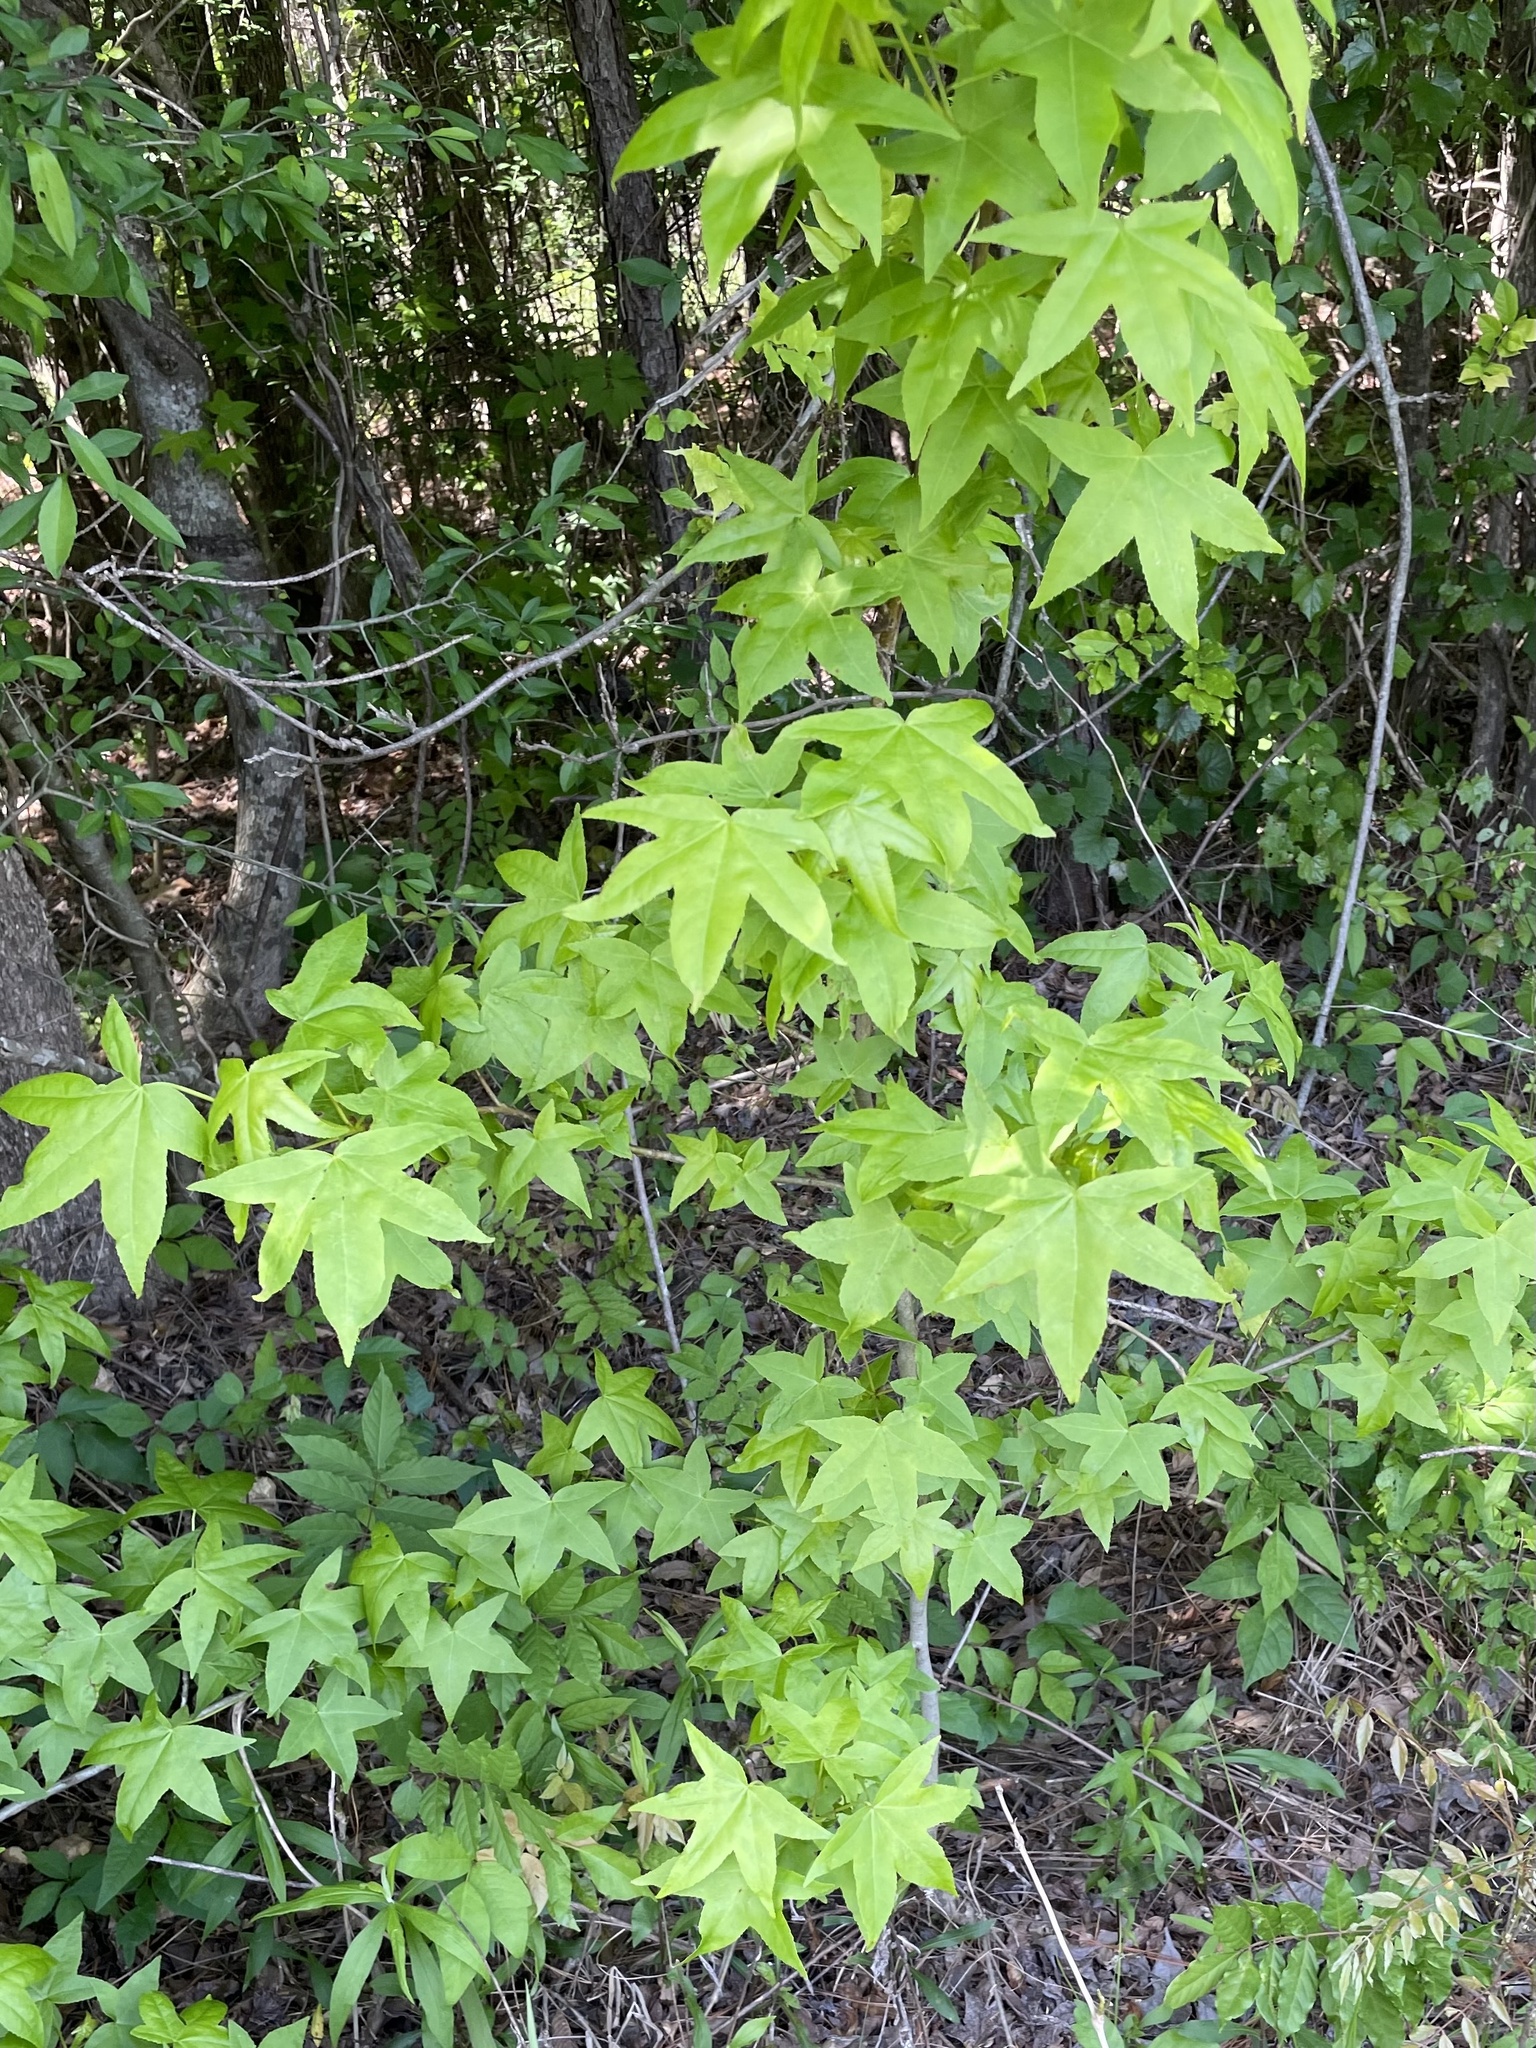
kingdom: Plantae
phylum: Tracheophyta
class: Magnoliopsida
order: Saxifragales
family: Altingiaceae
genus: Liquidambar
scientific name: Liquidambar styraciflua
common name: Sweet gum
